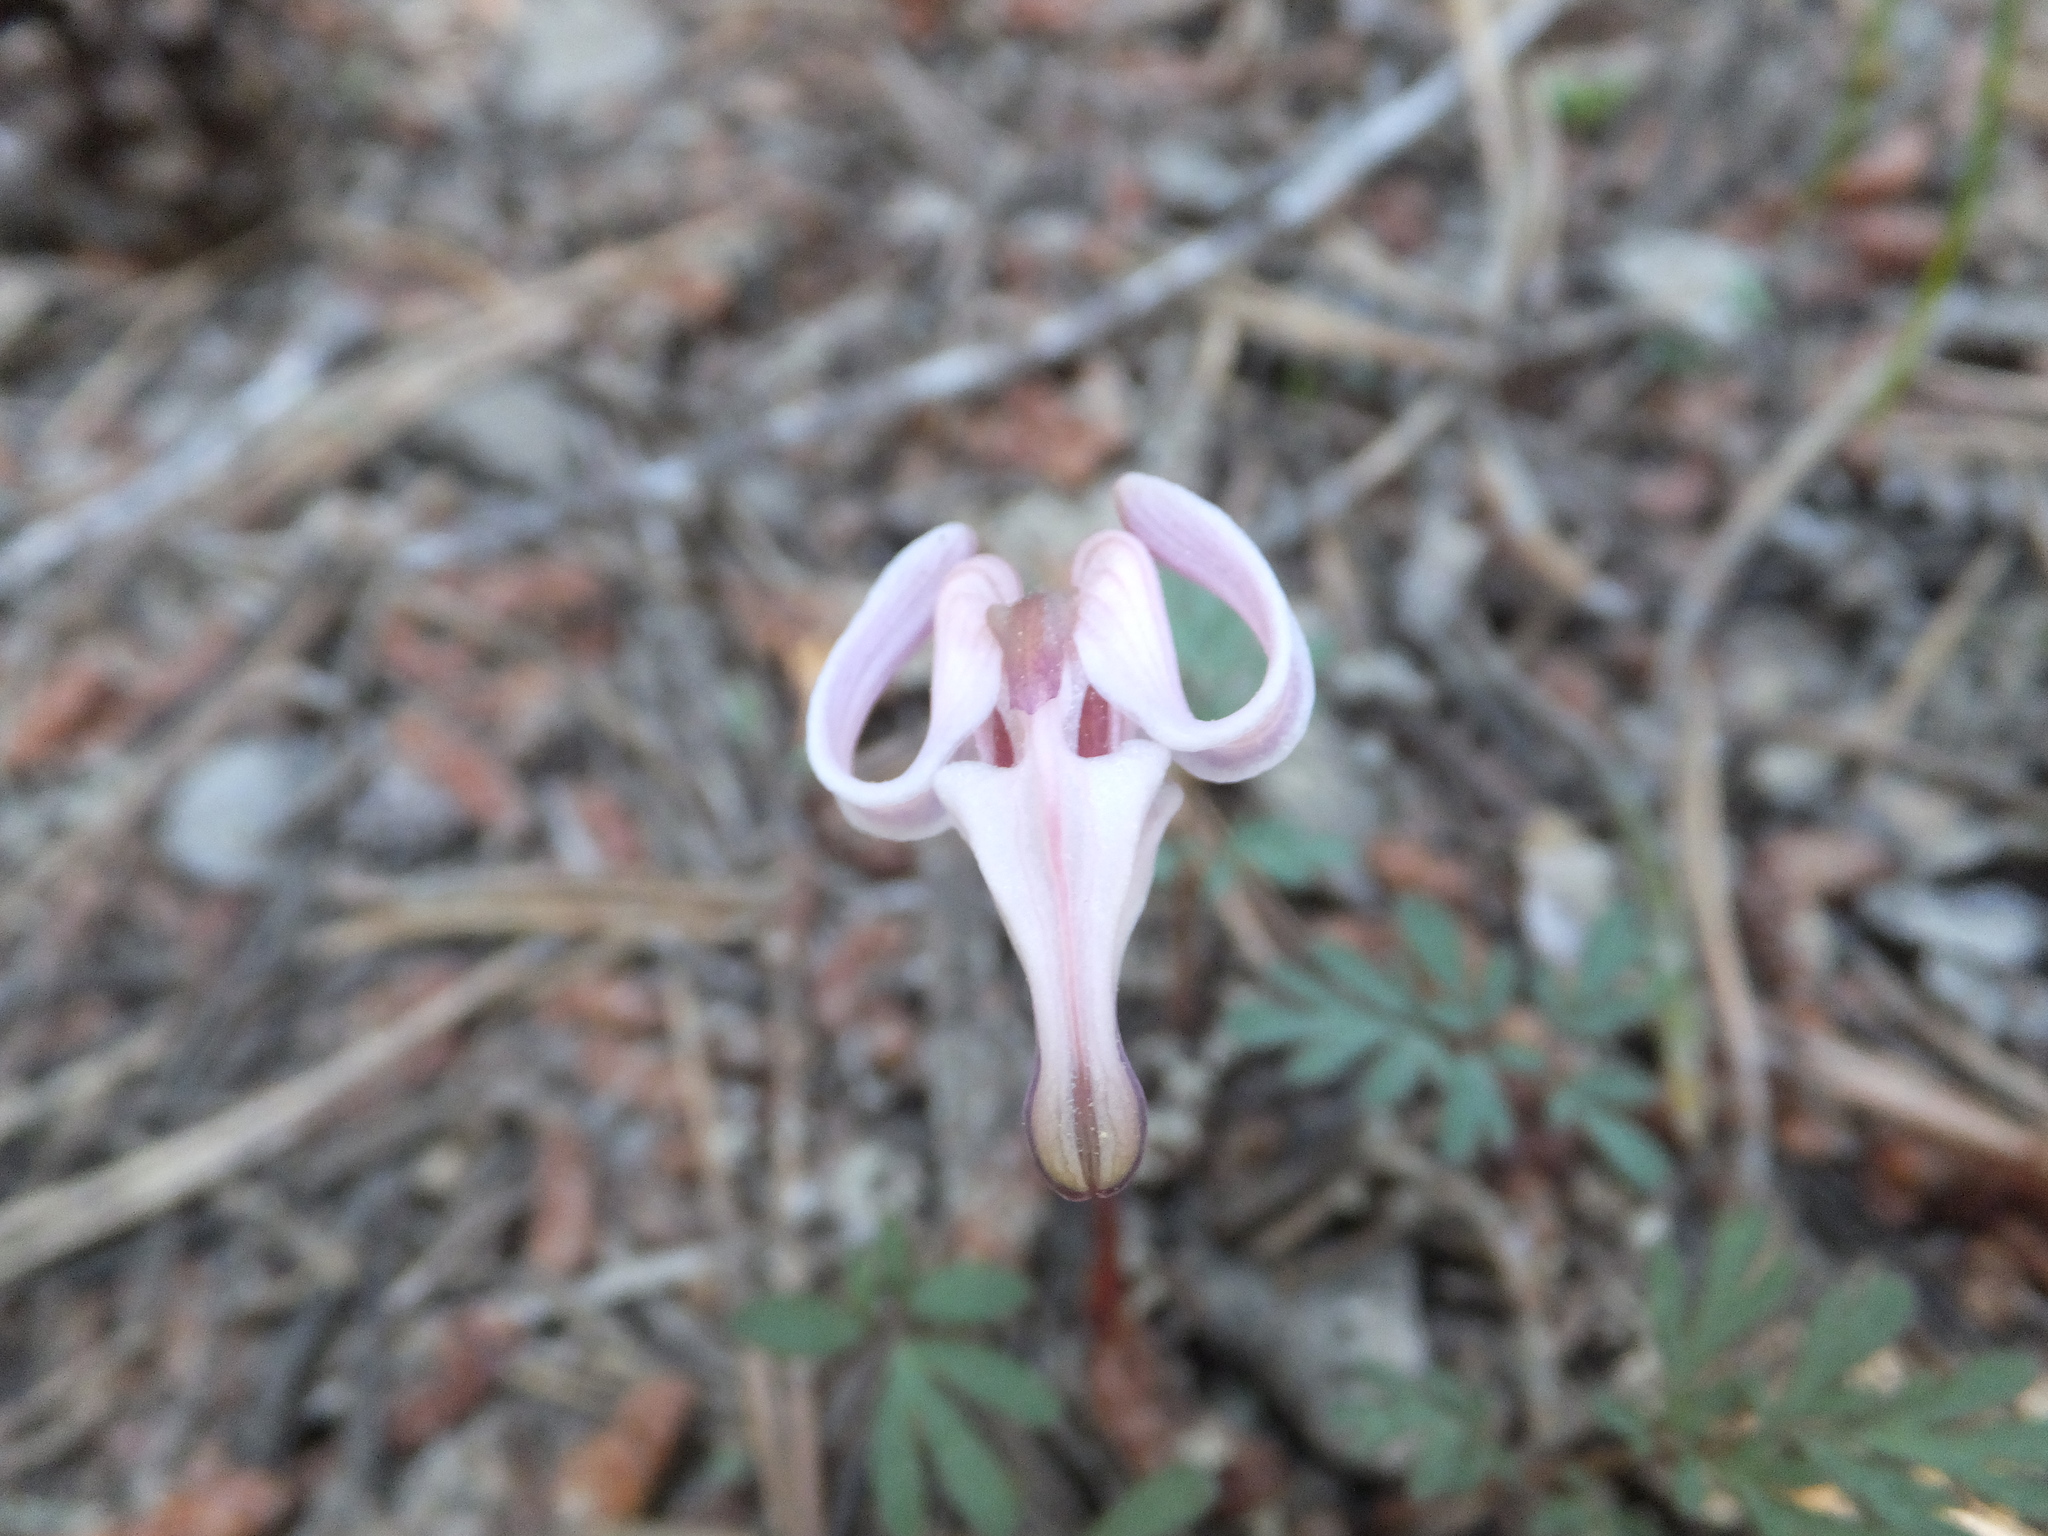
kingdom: Plantae
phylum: Tracheophyta
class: Magnoliopsida
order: Ranunculales
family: Papaveraceae
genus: Dicentra
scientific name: Dicentra uniflora
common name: Steer's-head
